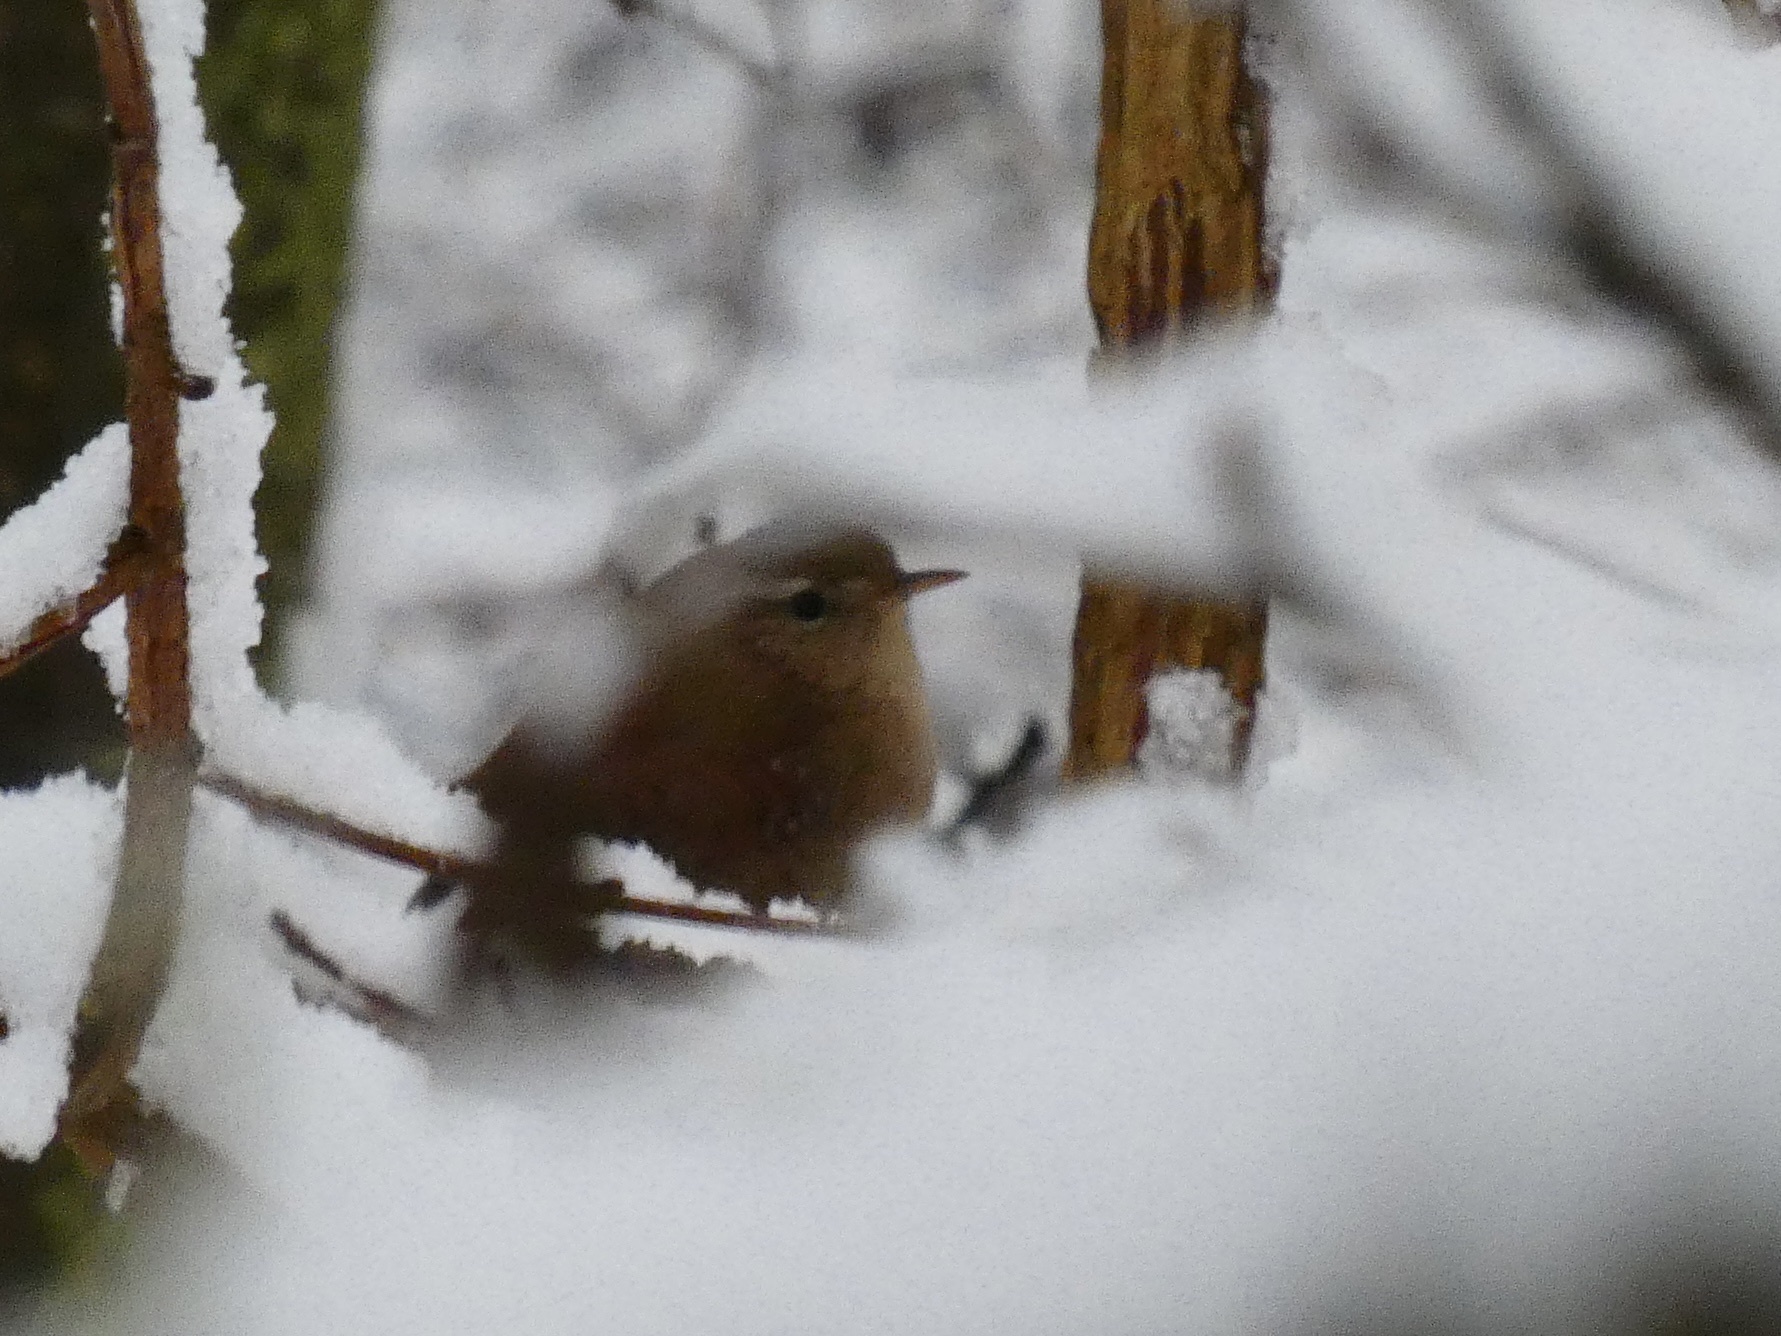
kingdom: Animalia
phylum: Chordata
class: Aves
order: Passeriformes
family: Troglodytidae
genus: Troglodytes
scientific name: Troglodytes troglodytes
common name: Eurasian wren
